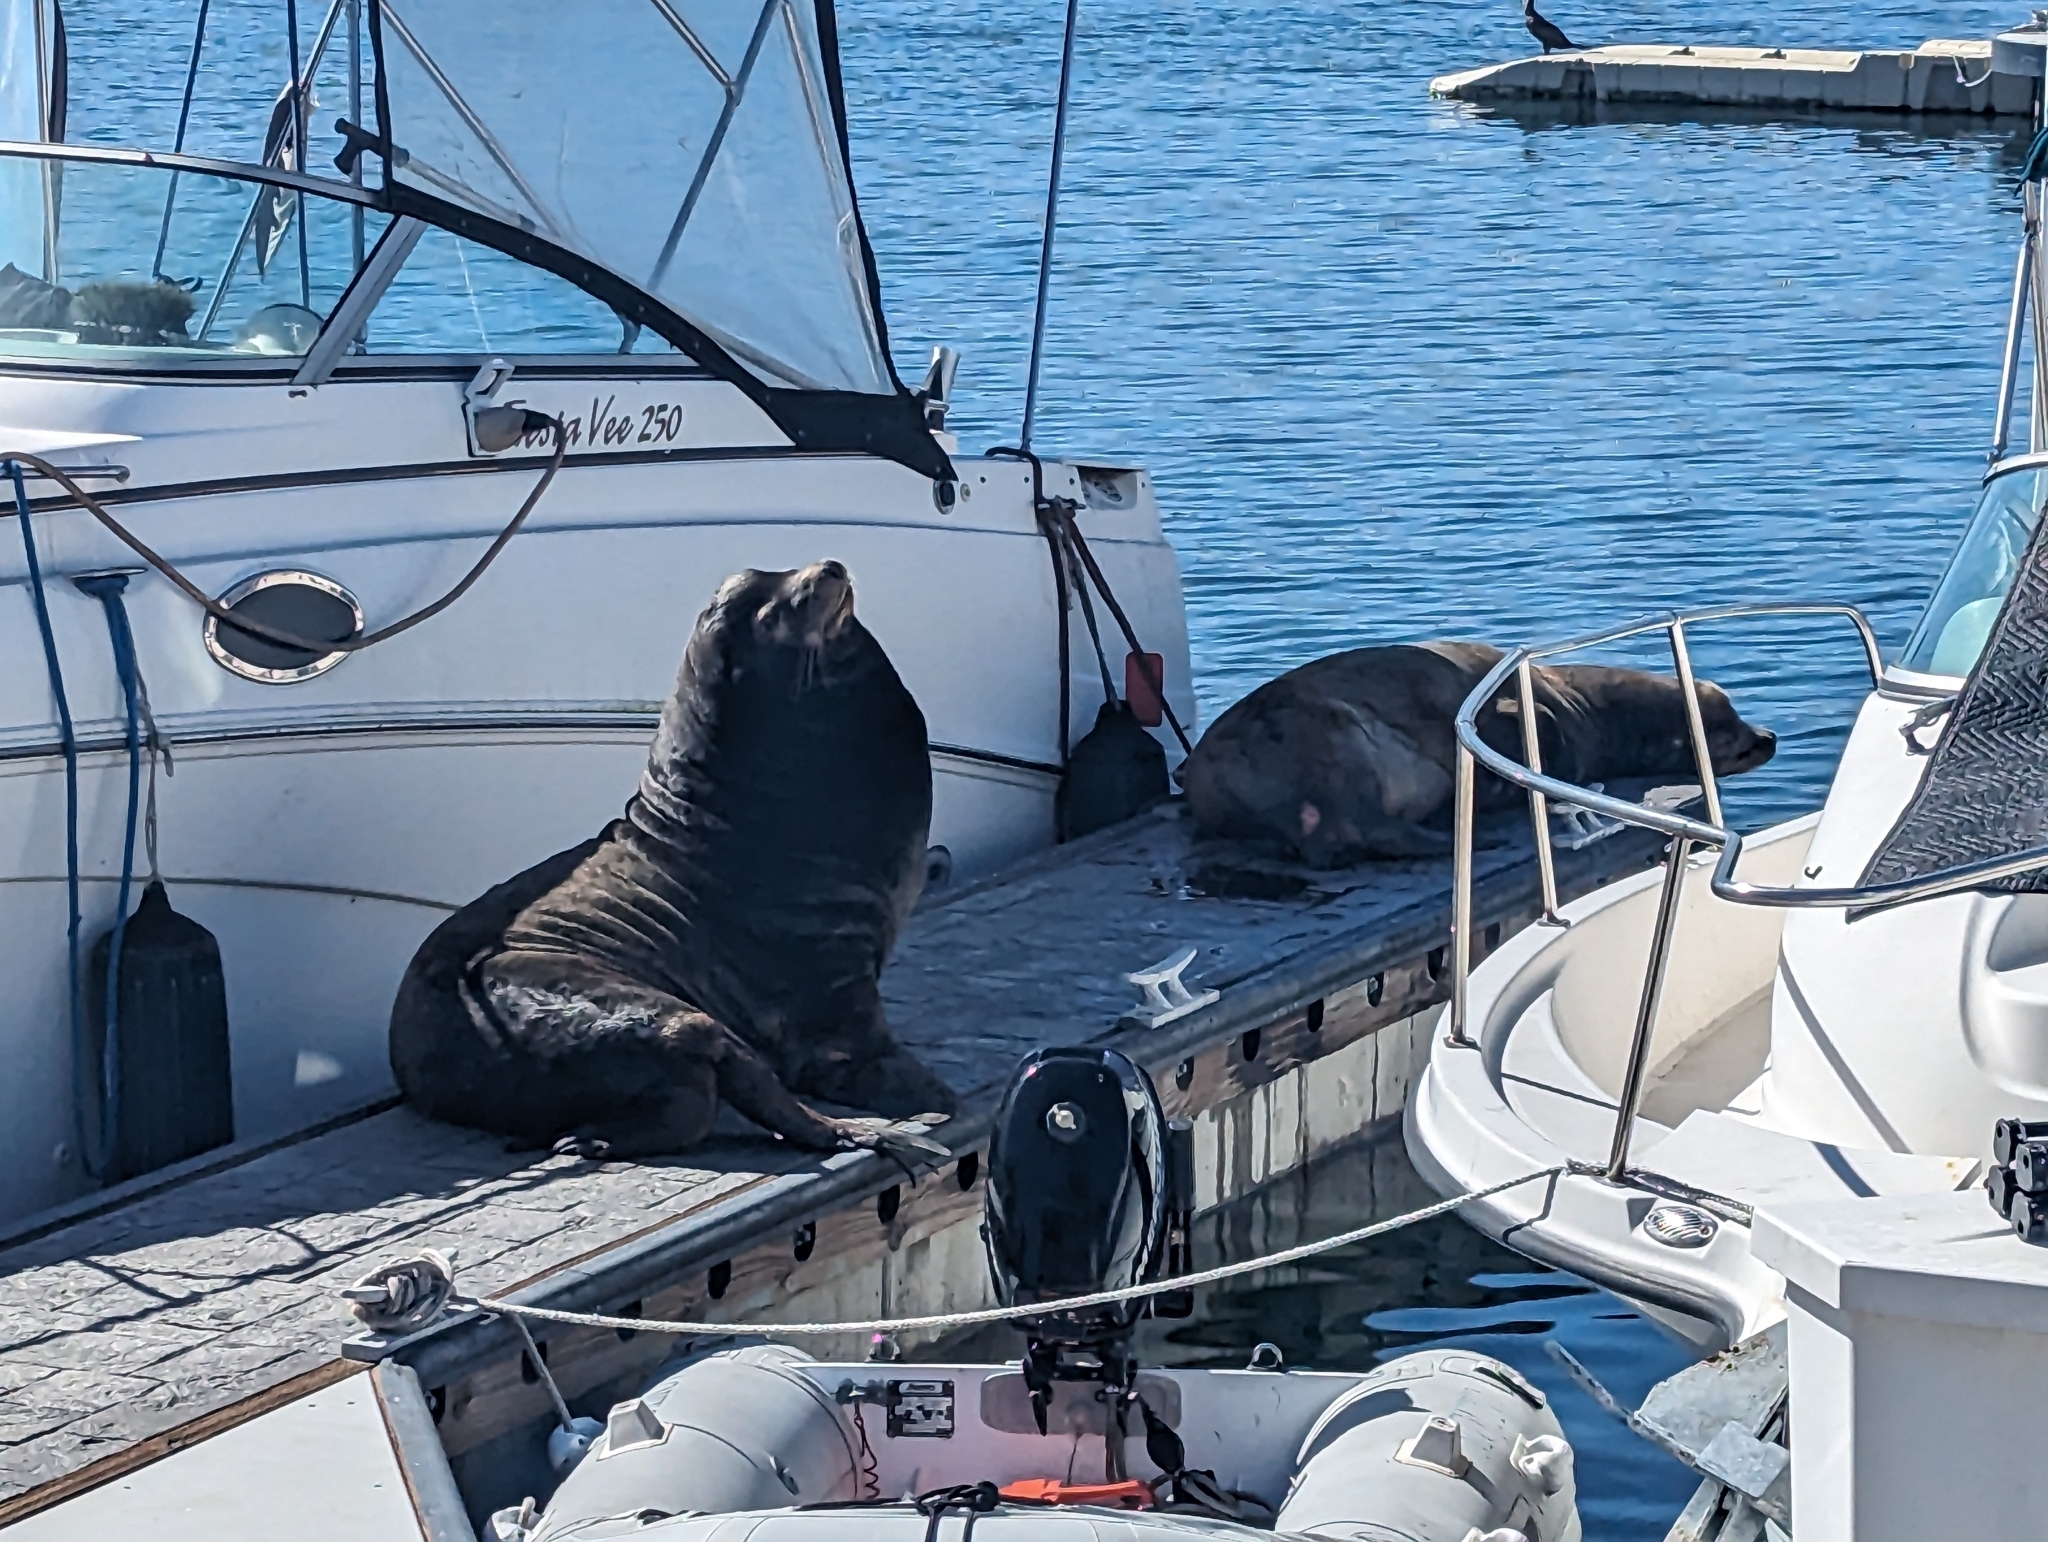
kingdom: Animalia
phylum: Chordata
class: Mammalia
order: Carnivora
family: Otariidae
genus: Zalophus
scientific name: Zalophus californianus
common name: California sea lion
